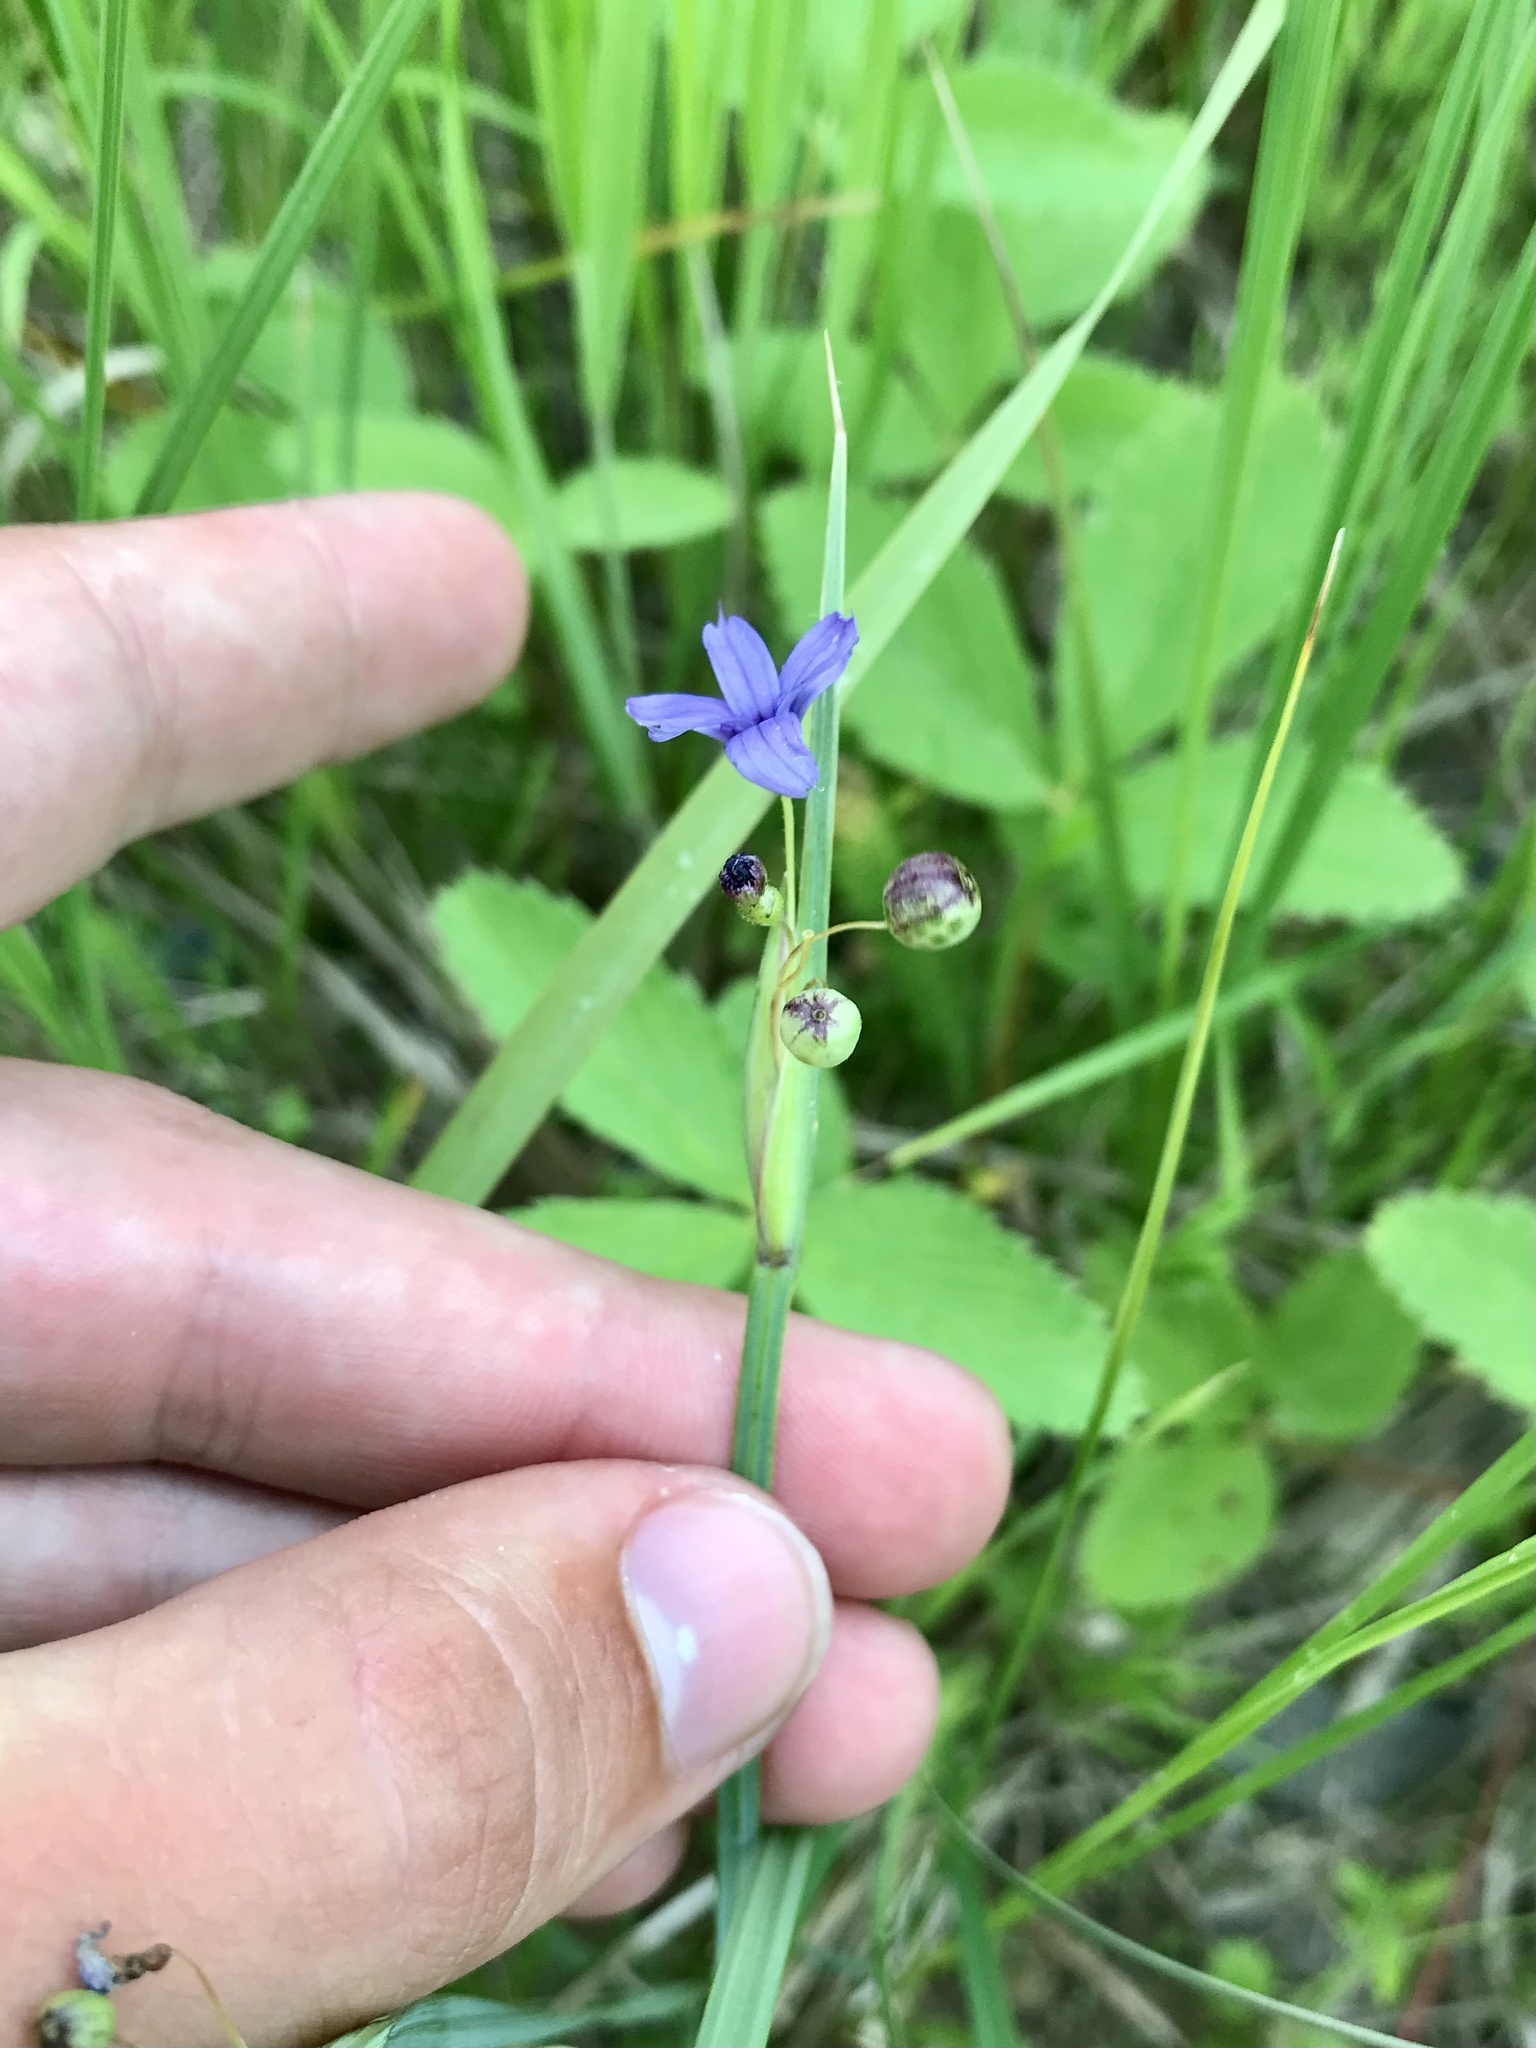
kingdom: Plantae
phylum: Tracheophyta
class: Liliopsida
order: Asparagales
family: Iridaceae
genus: Sisyrinchium
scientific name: Sisyrinchium montanum
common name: American blue-eyed-grass
